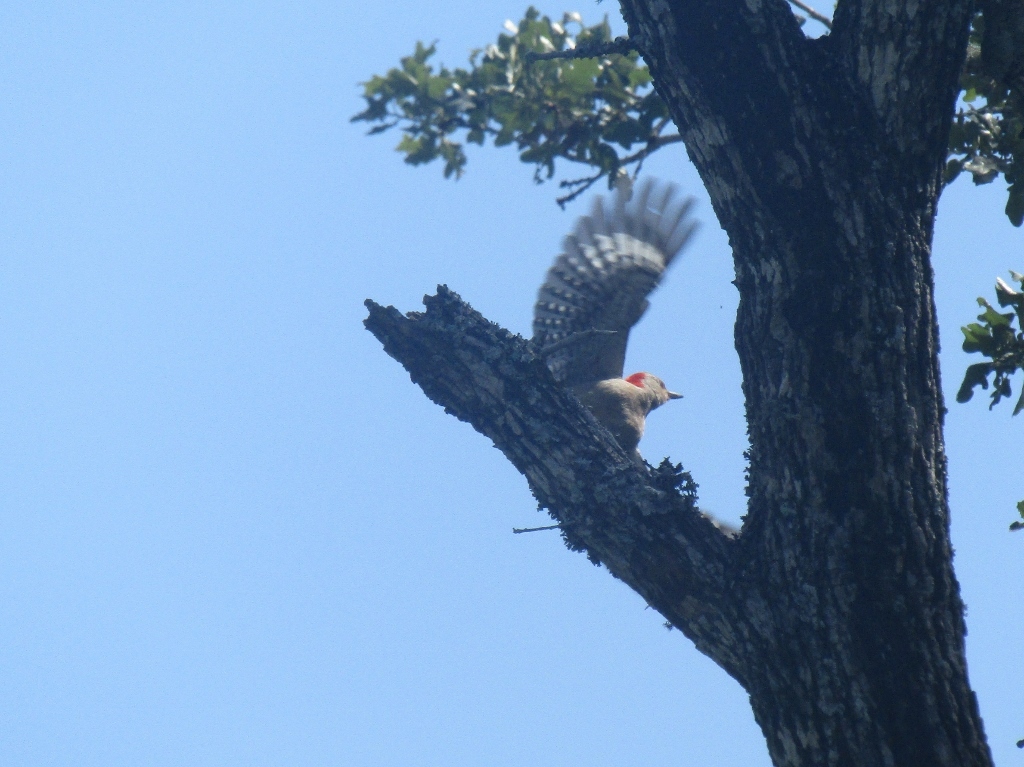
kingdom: Animalia
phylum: Chordata
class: Aves
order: Piciformes
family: Picidae
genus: Melanerpes
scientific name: Melanerpes carolinus
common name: Red-bellied woodpecker
